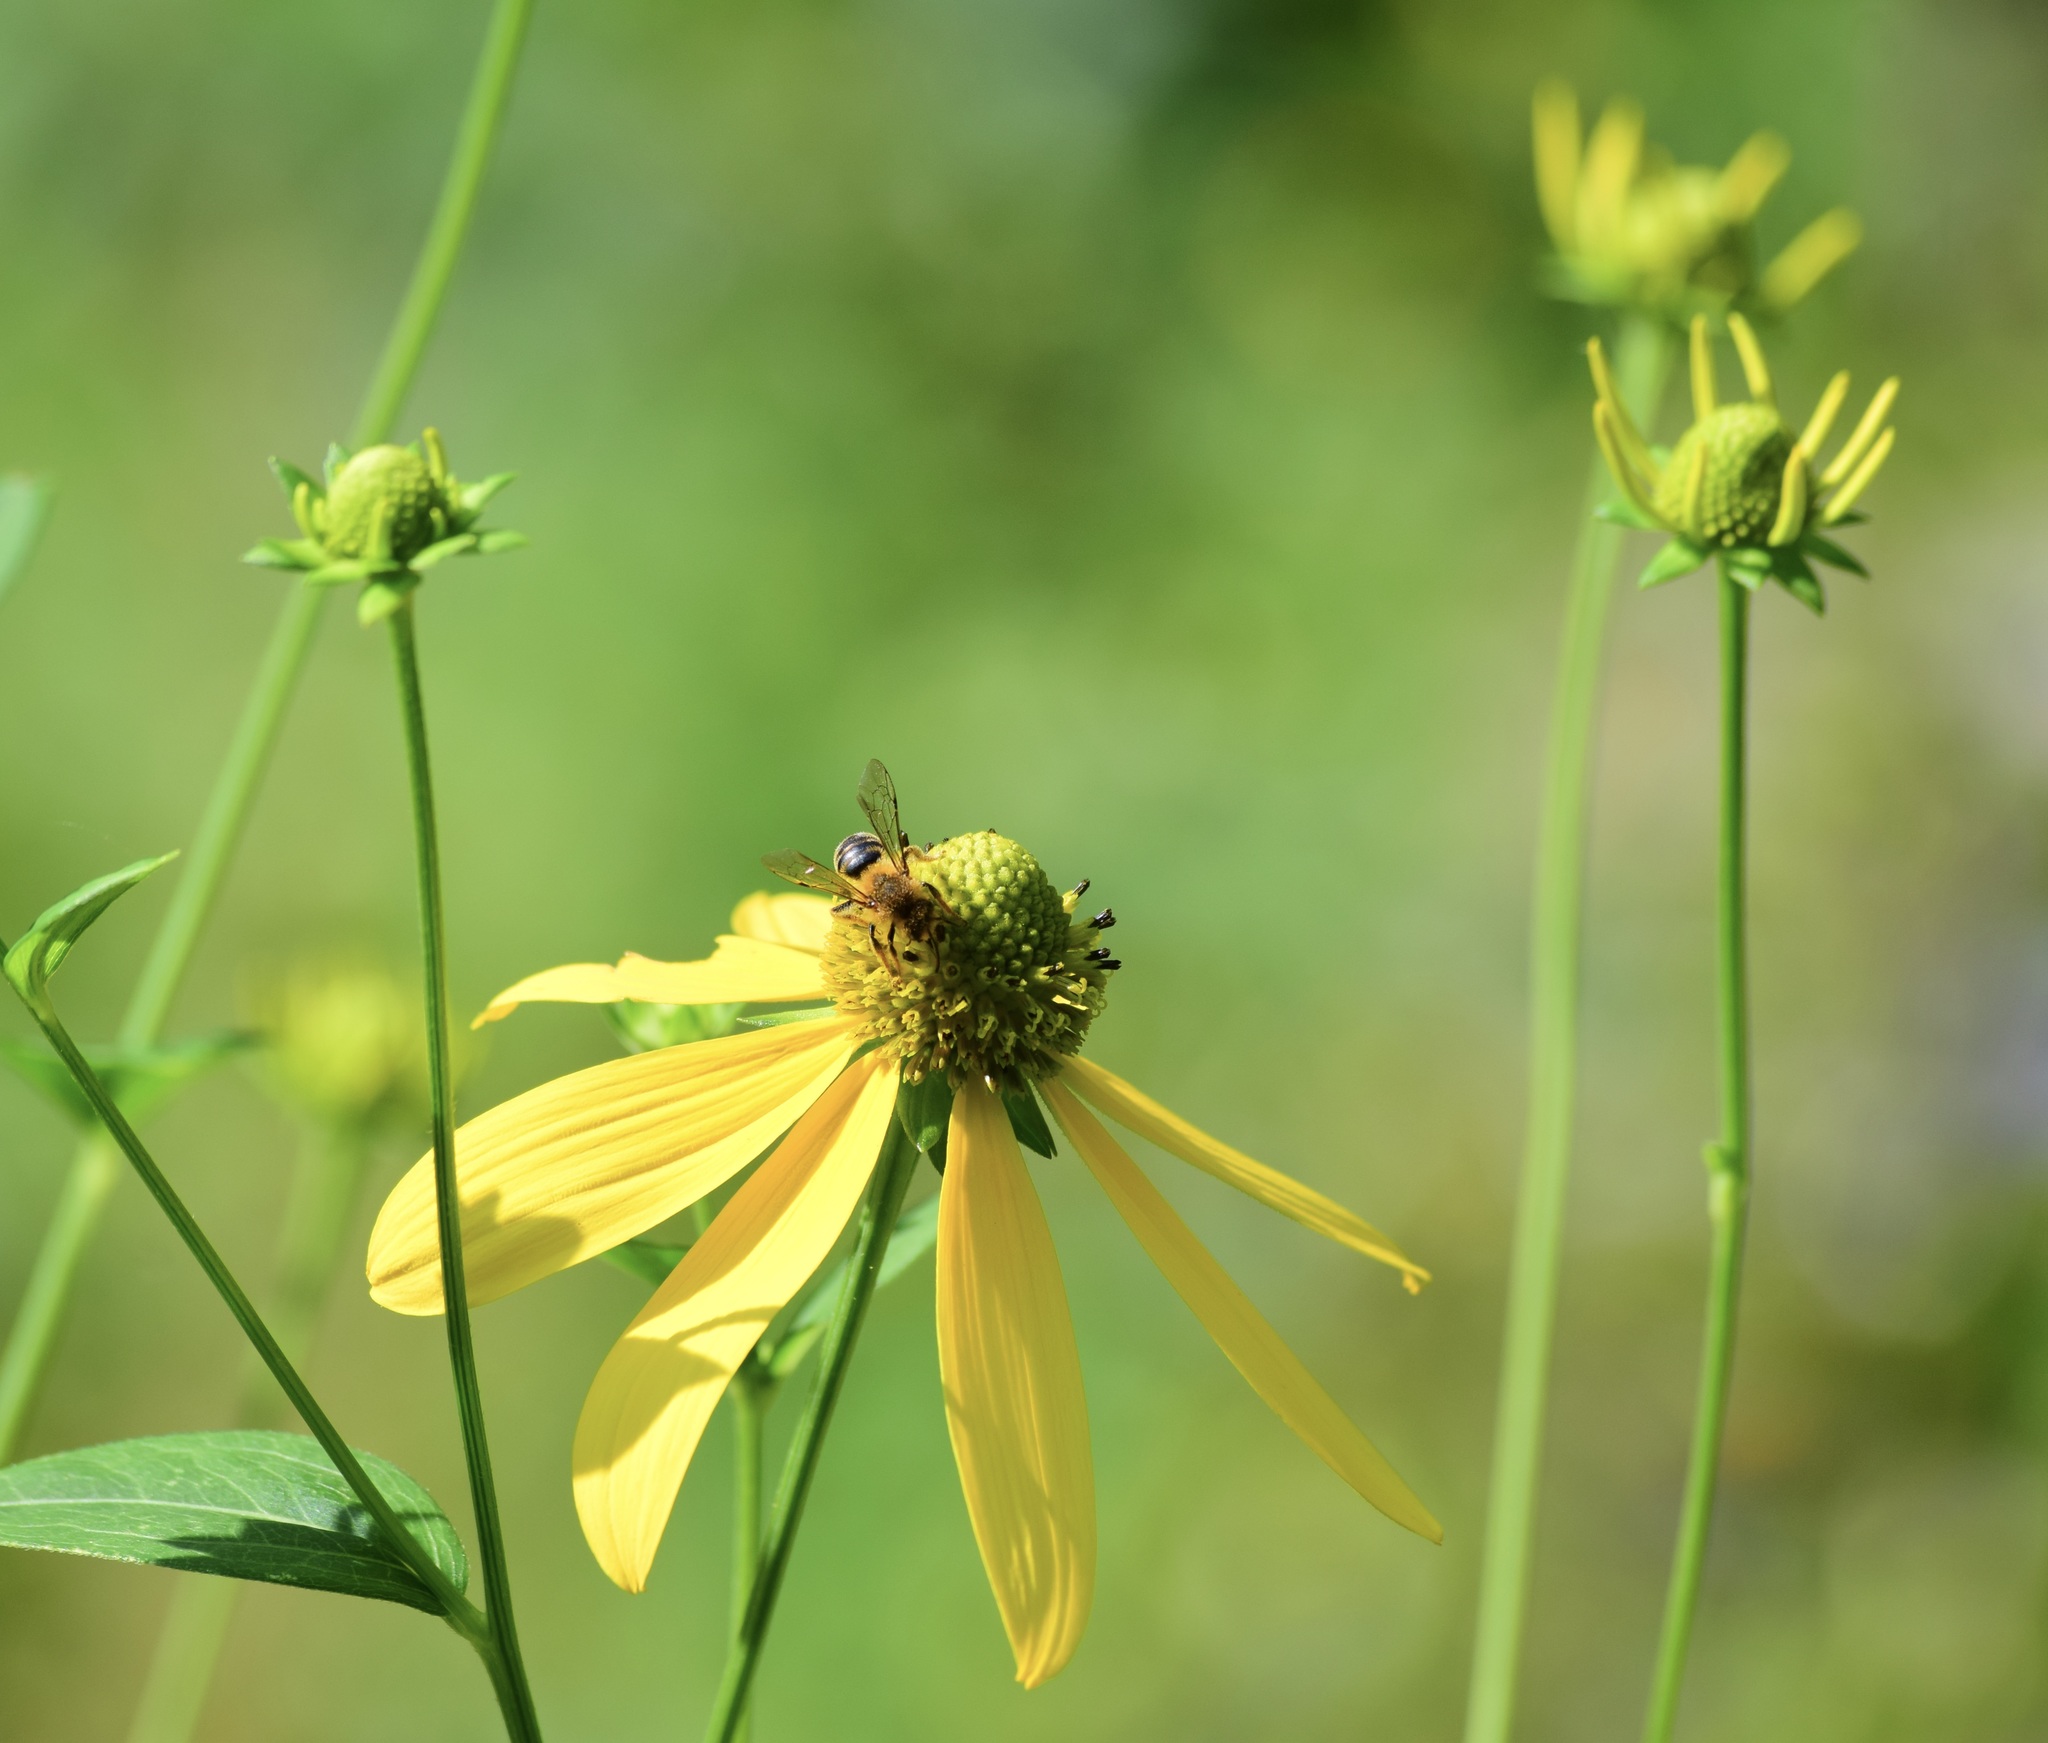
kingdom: Animalia
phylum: Arthropoda
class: Insecta
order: Hymenoptera
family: Andrenidae
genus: Andrena
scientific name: Andrena helianthi
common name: Sunflower mining bee
